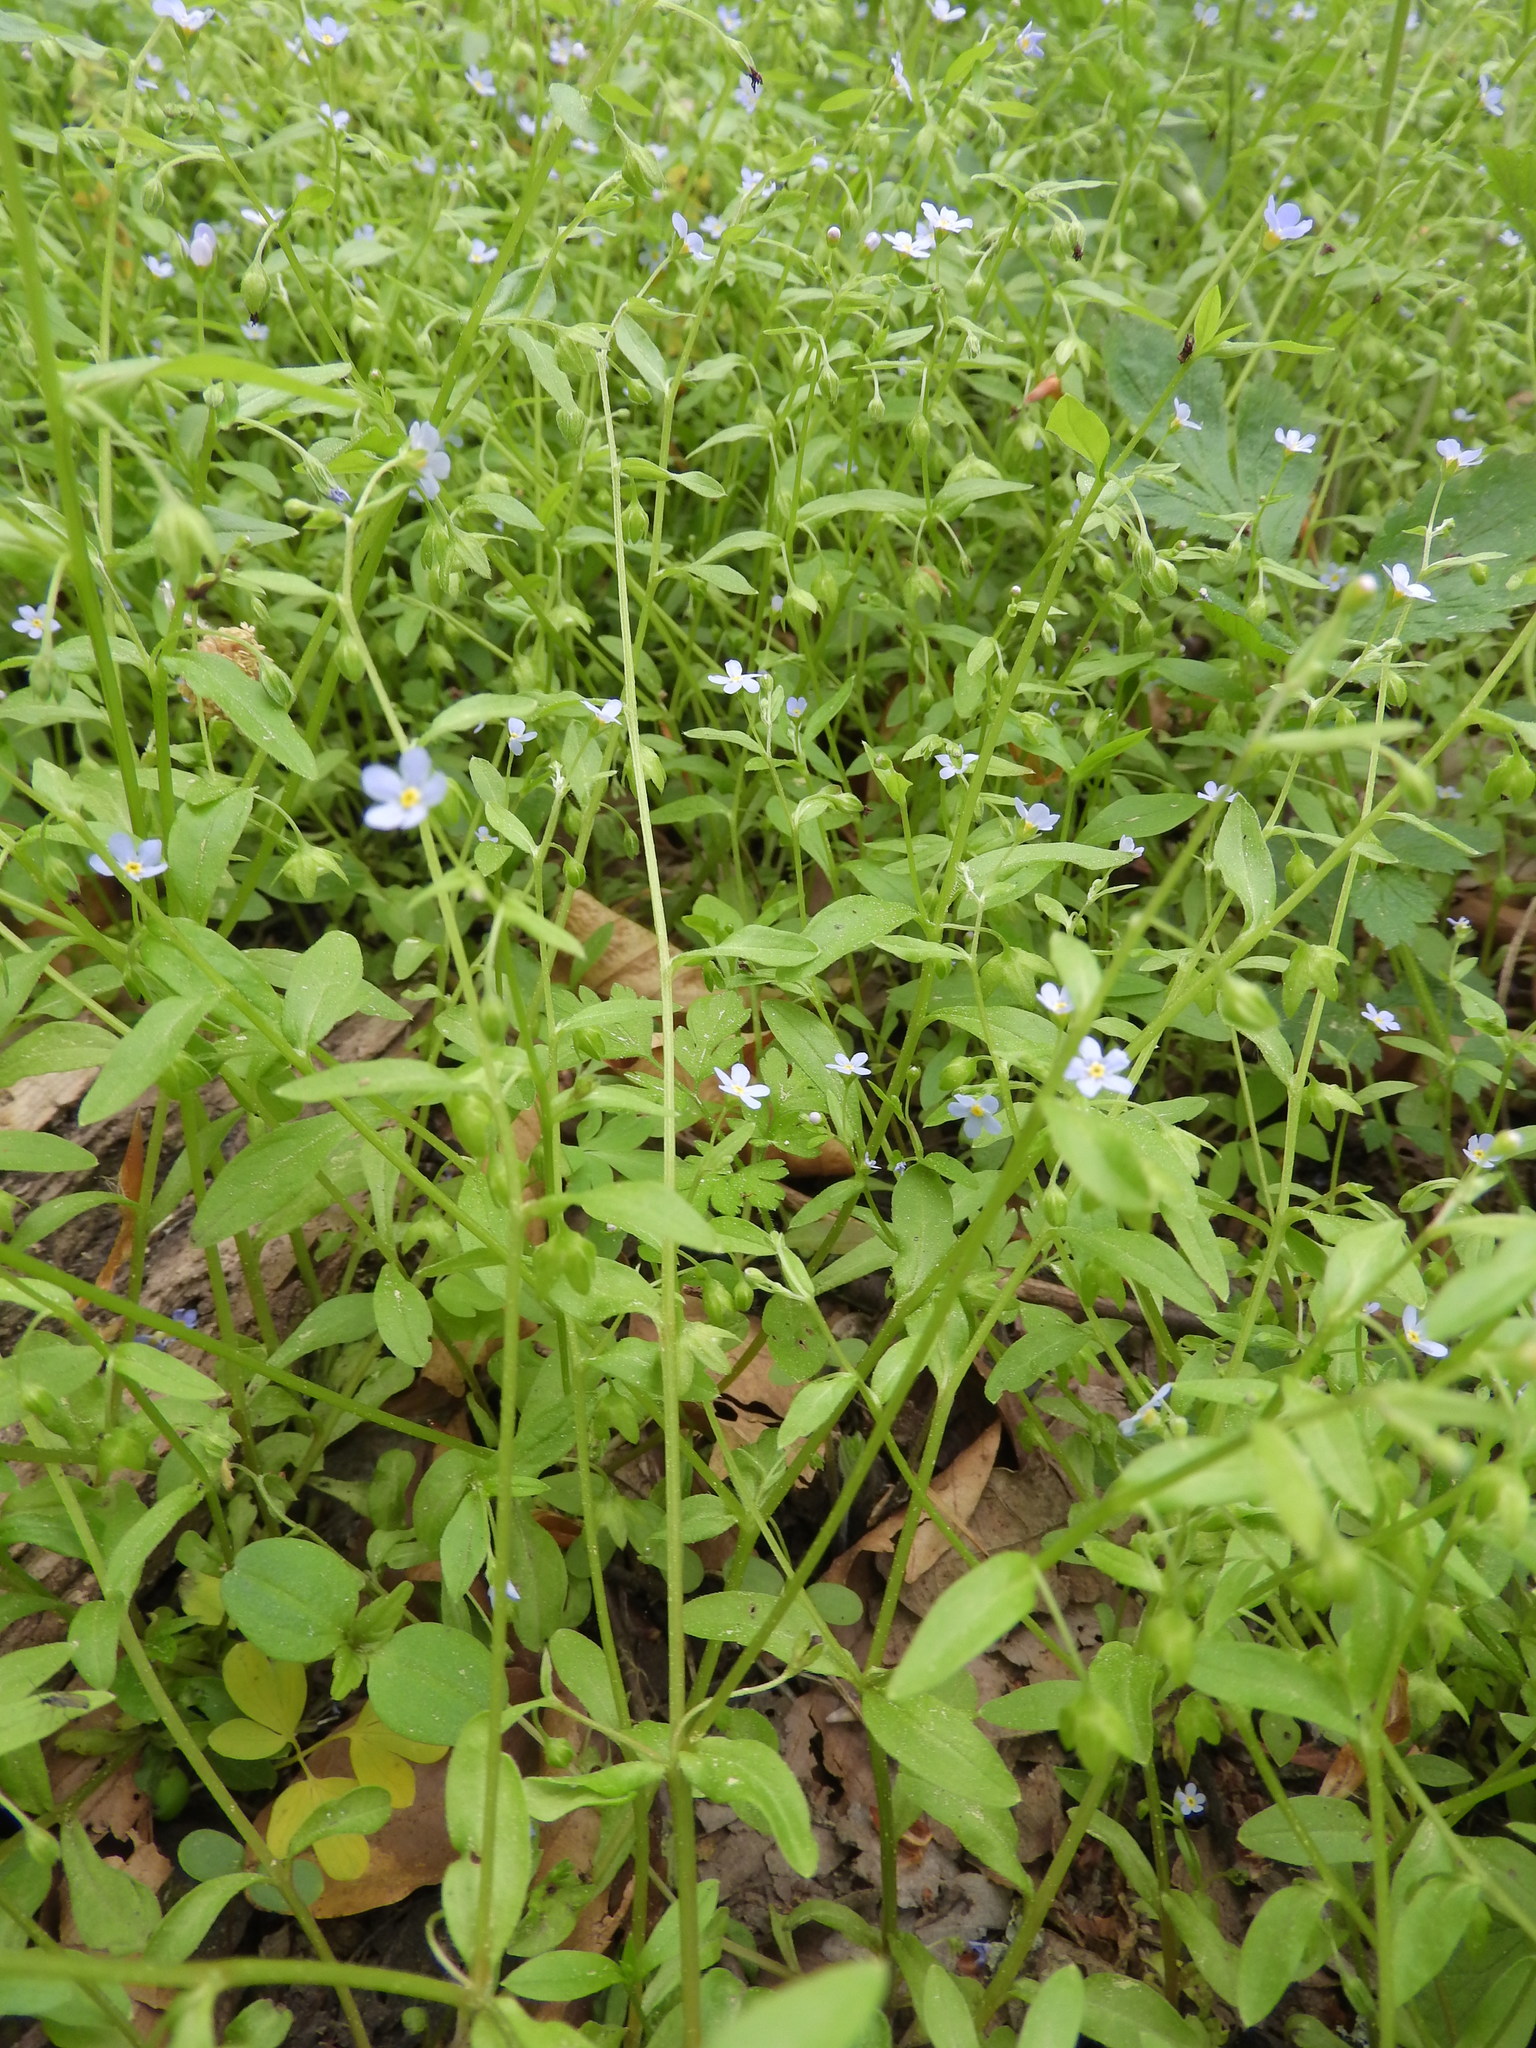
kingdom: Plantae
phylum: Tracheophyta
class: Magnoliopsida
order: Boraginales
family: Boraginaceae
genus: Memoremea
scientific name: Memoremea scorpioides
